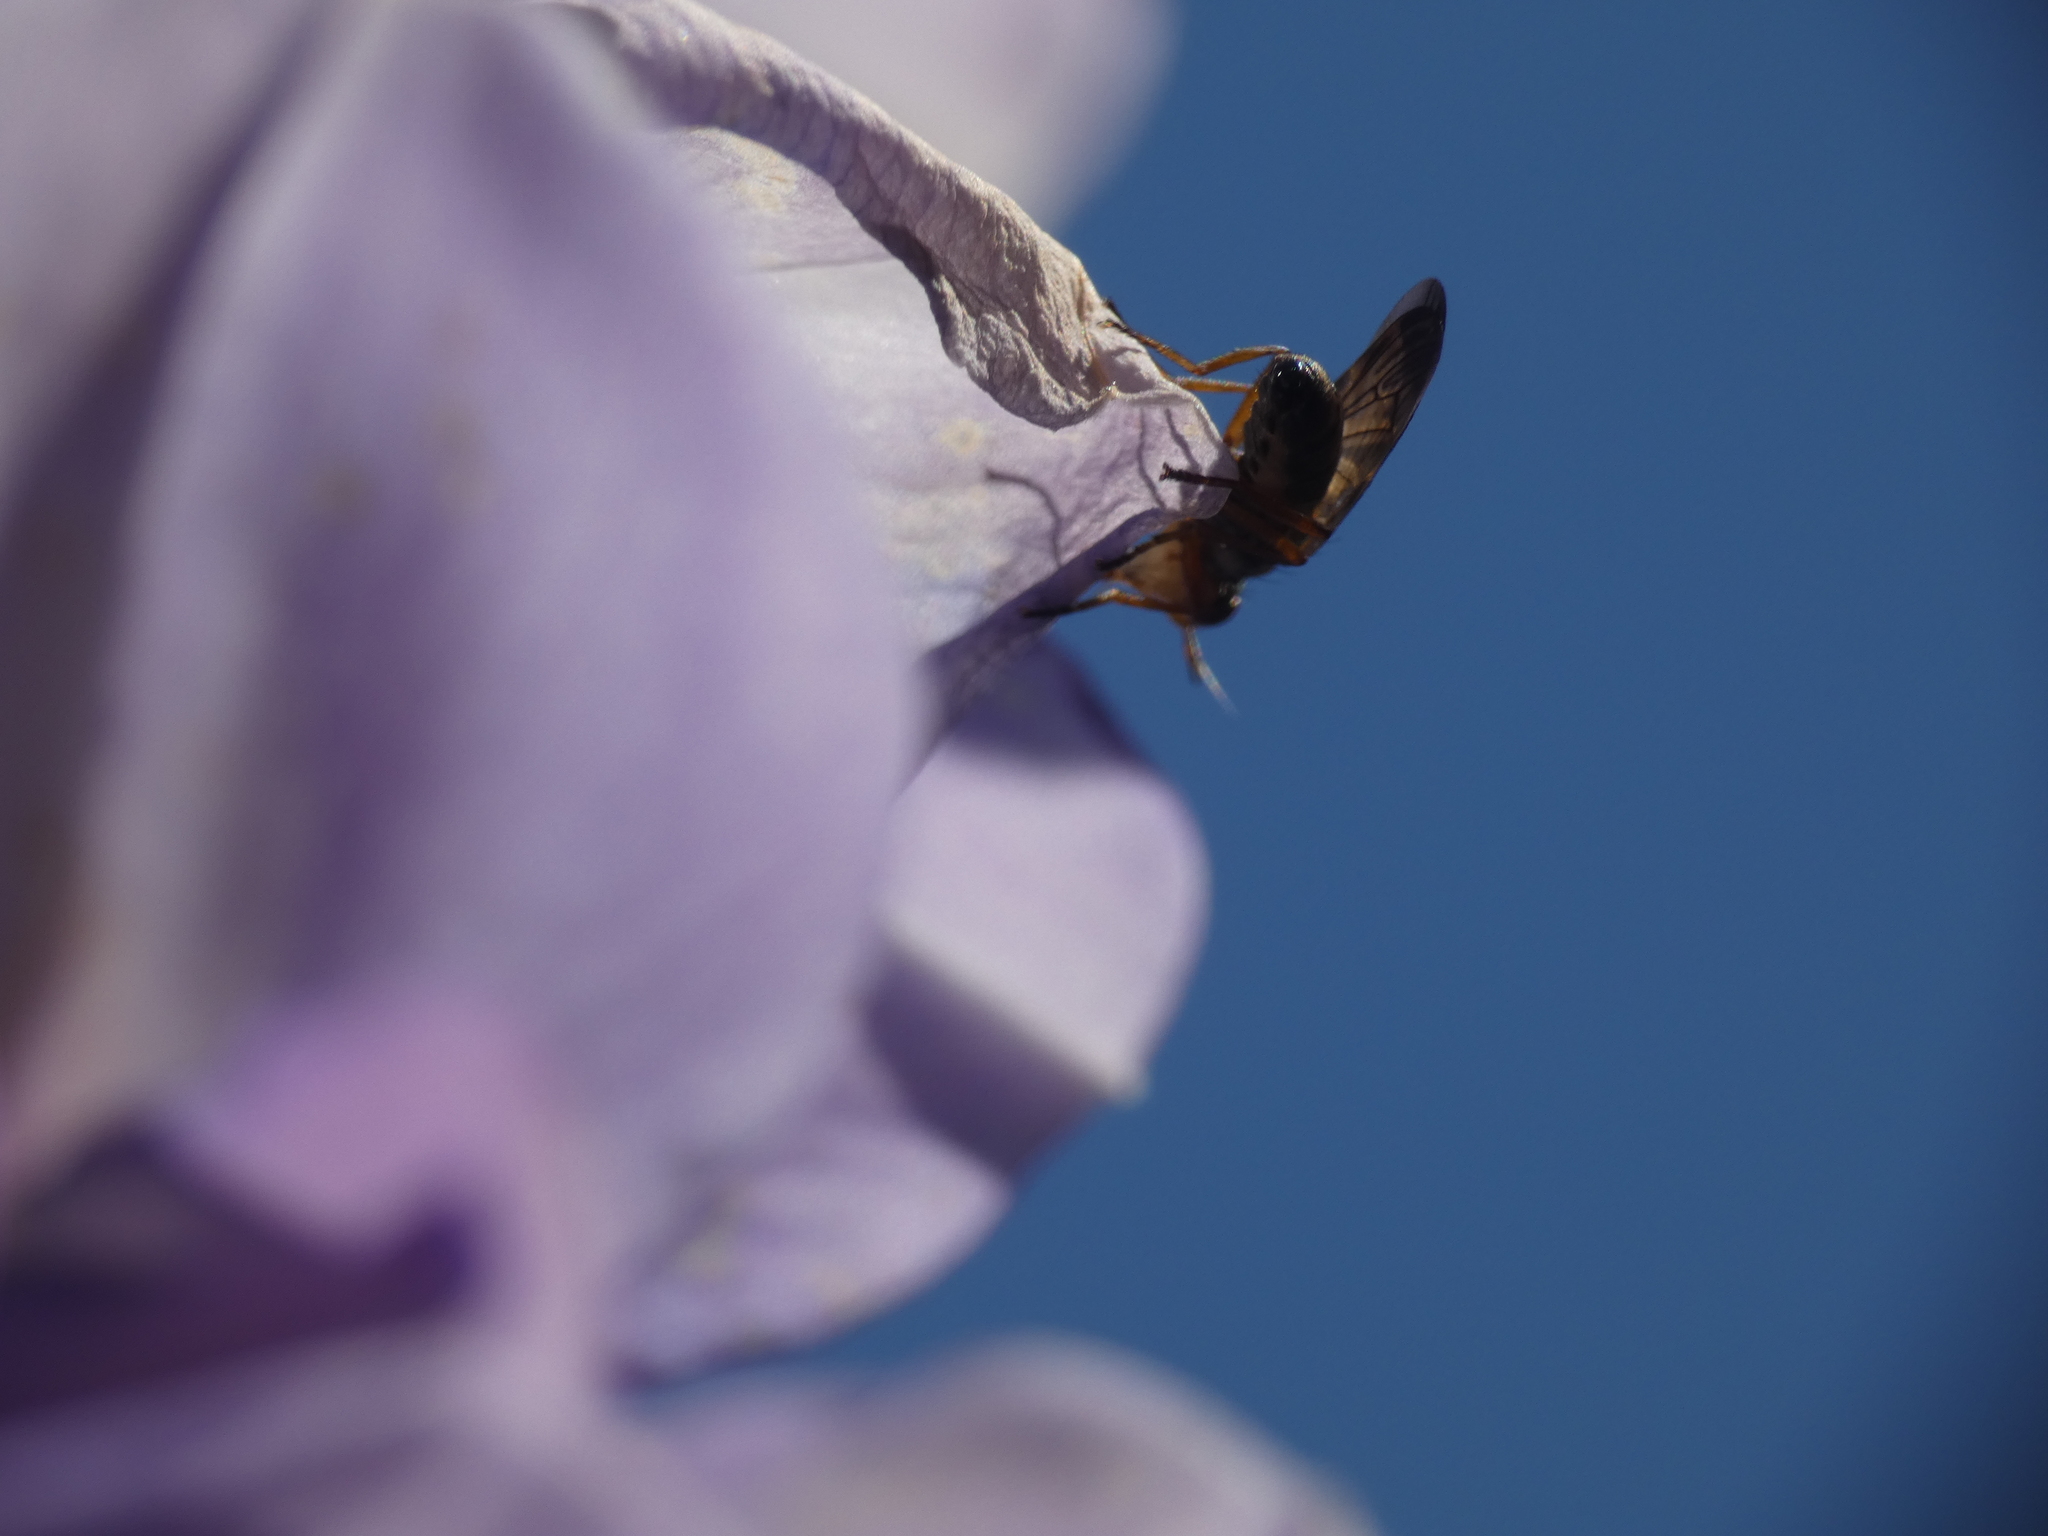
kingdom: Animalia
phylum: Arthropoda
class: Insecta
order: Diptera
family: Ulidiidae
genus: Dorycera
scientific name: Dorycera aquatica
